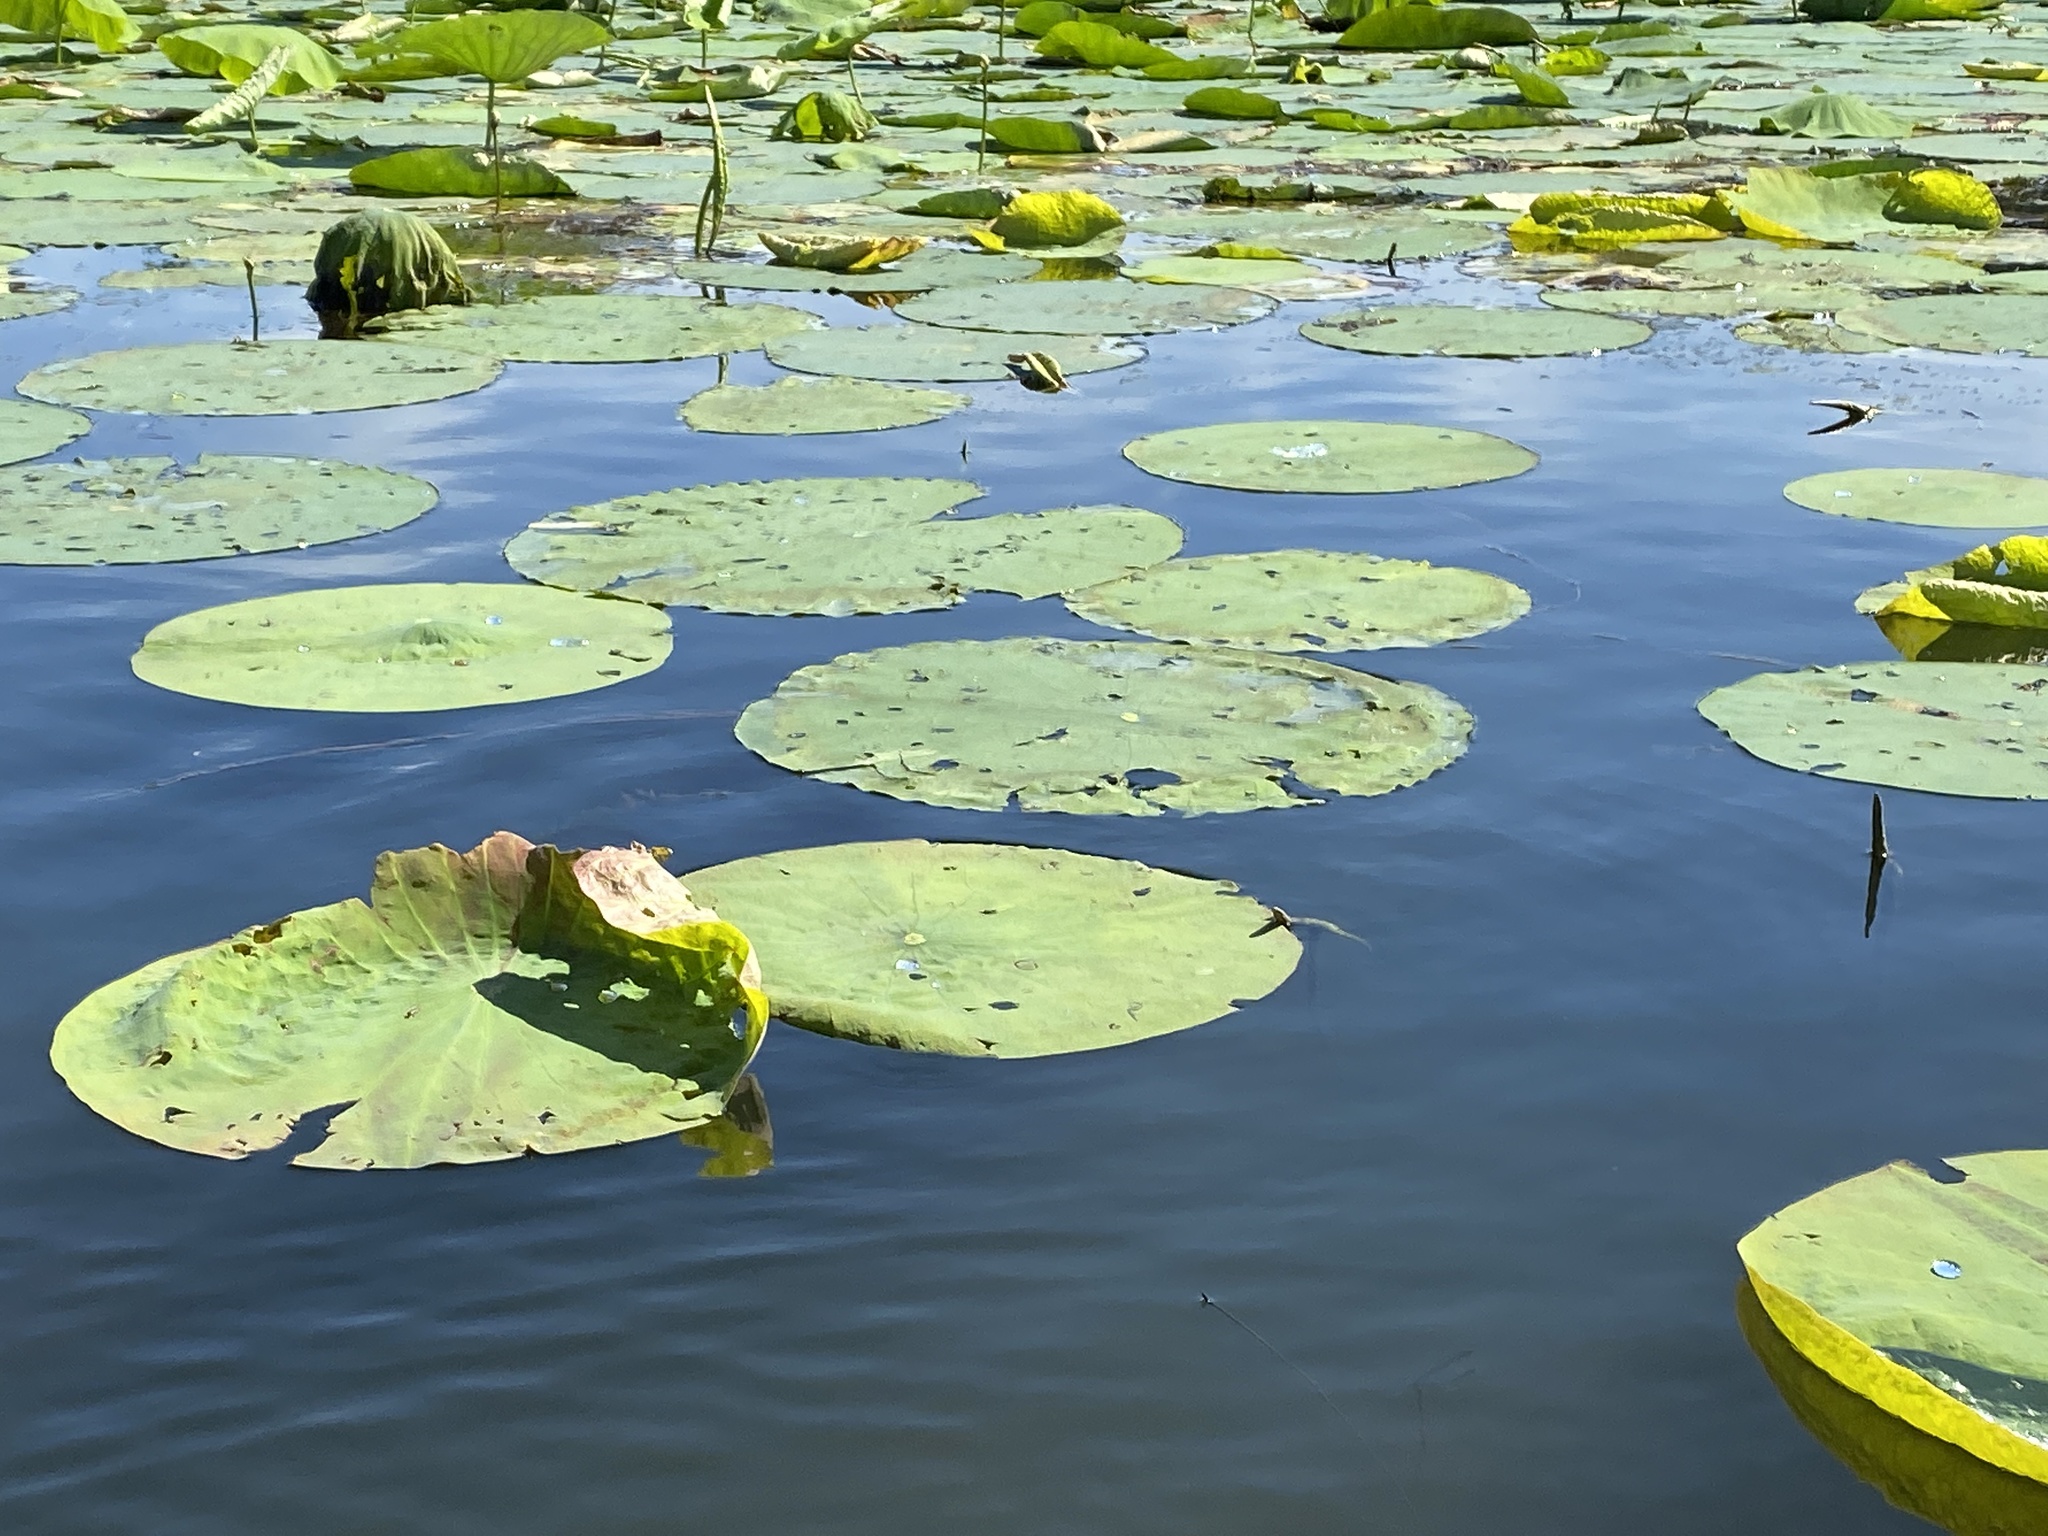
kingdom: Plantae
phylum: Tracheophyta
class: Magnoliopsida
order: Proteales
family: Nelumbonaceae
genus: Nelumbo
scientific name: Nelumbo lutea
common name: American lotus
